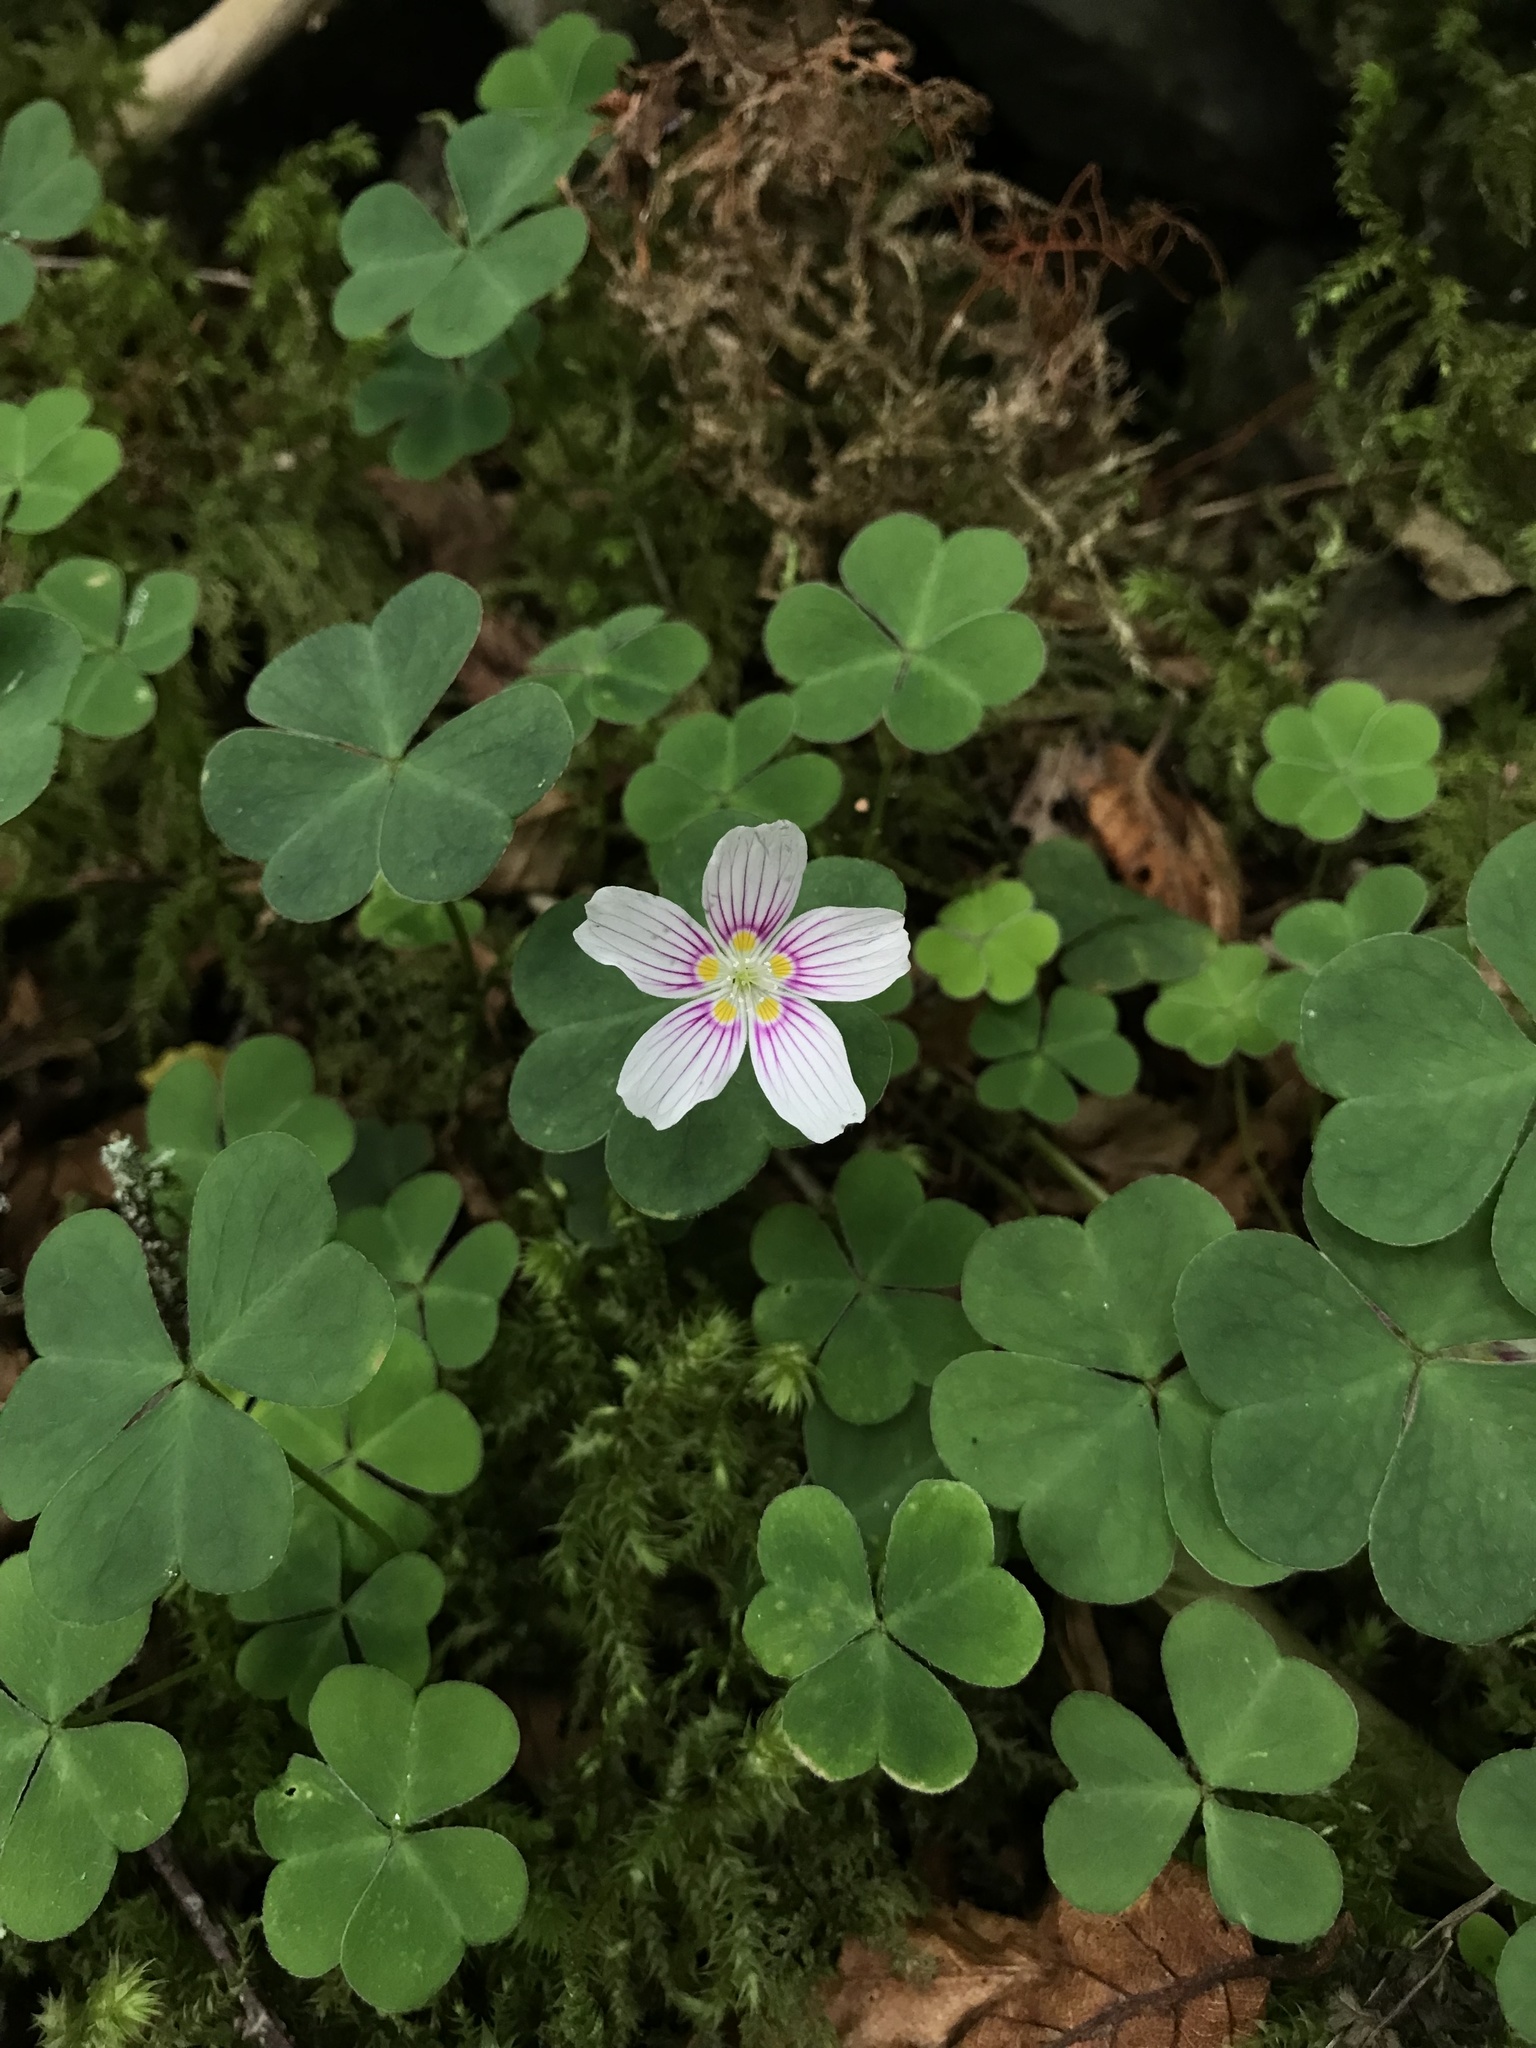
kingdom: Plantae
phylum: Tracheophyta
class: Magnoliopsida
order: Oxalidales
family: Oxalidaceae
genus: Oxalis
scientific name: Oxalis montana
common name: American wood-sorrel
